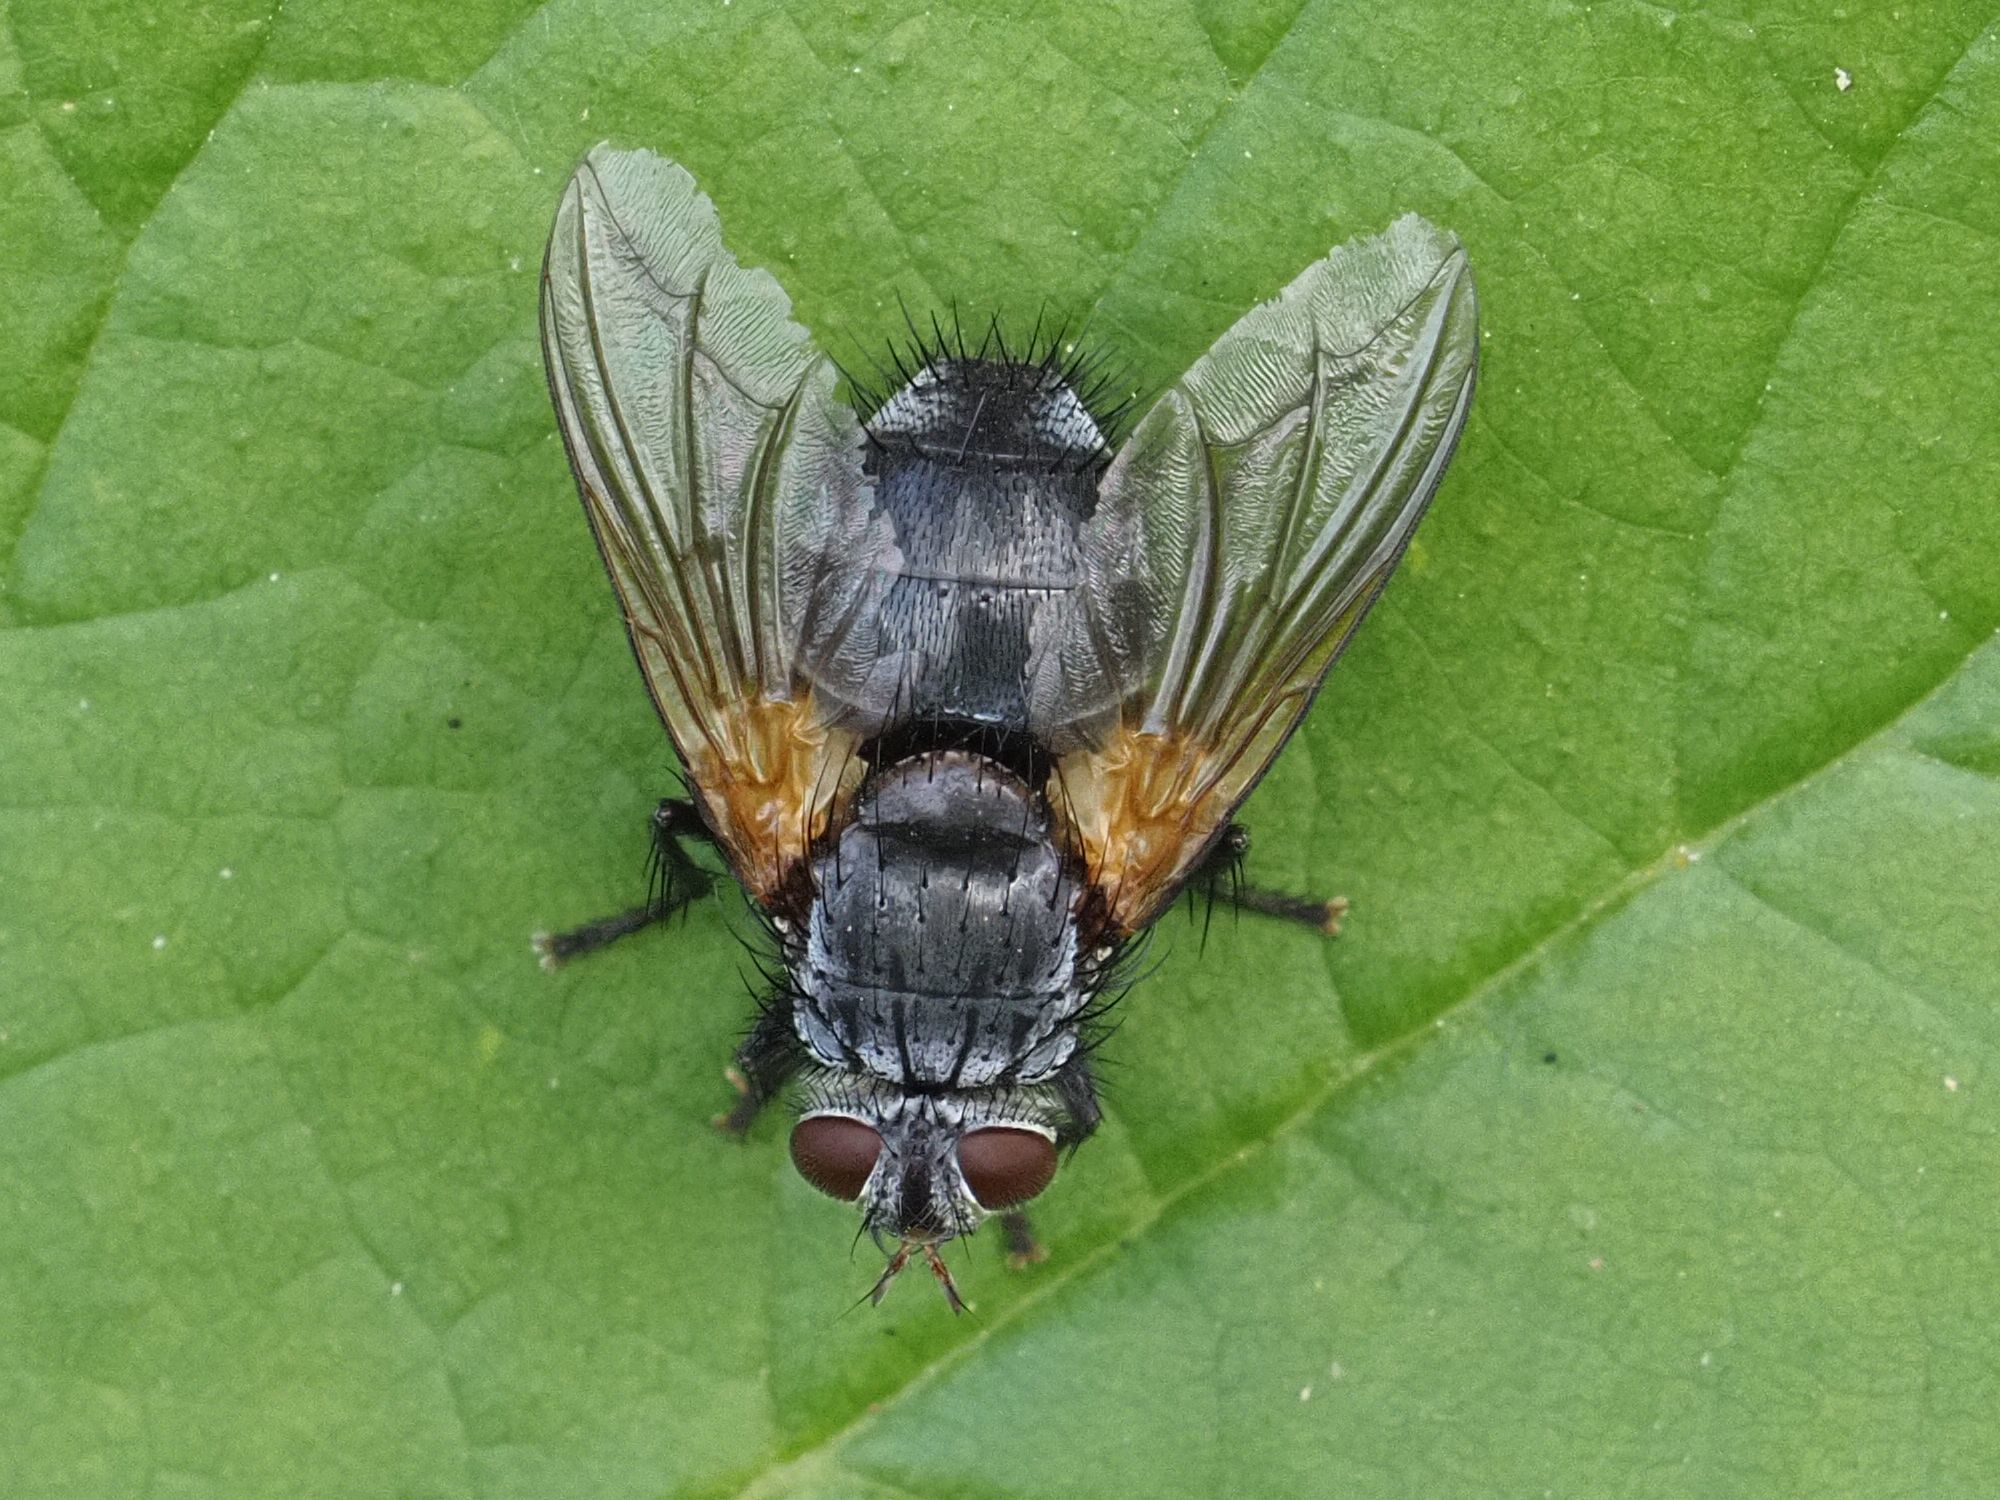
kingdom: Animalia
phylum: Arthropoda
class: Insecta
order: Diptera
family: Tachinidae
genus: Nemoraea
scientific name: Nemoraea pellucida
